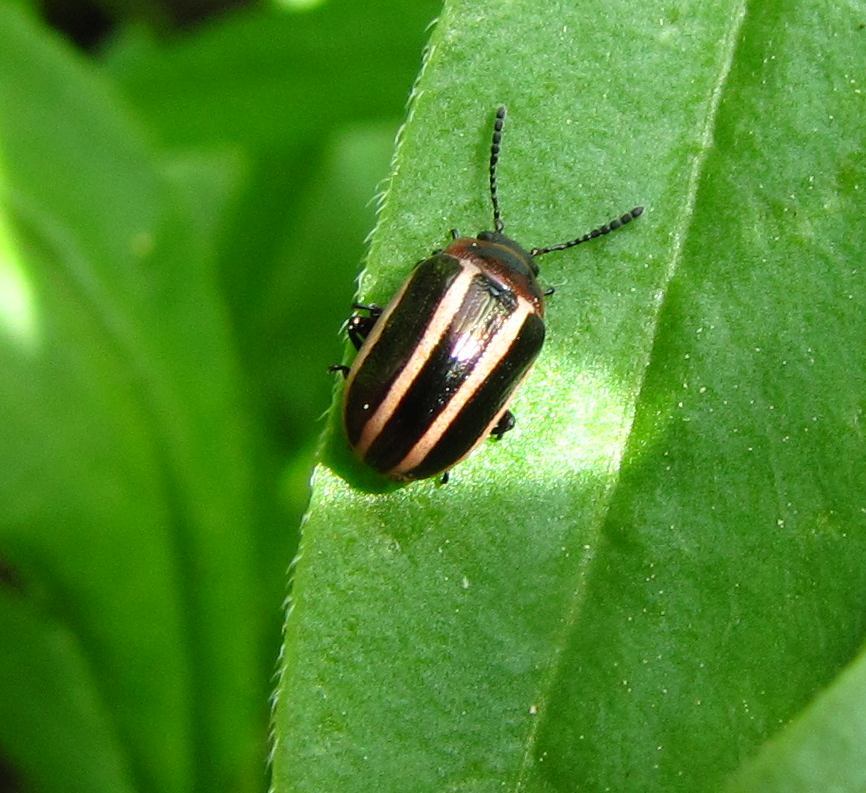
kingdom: Animalia
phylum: Arthropoda
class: Insecta
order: Coleoptera
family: Chrysomelidae
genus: Calligrapha
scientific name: Calligrapha californica
